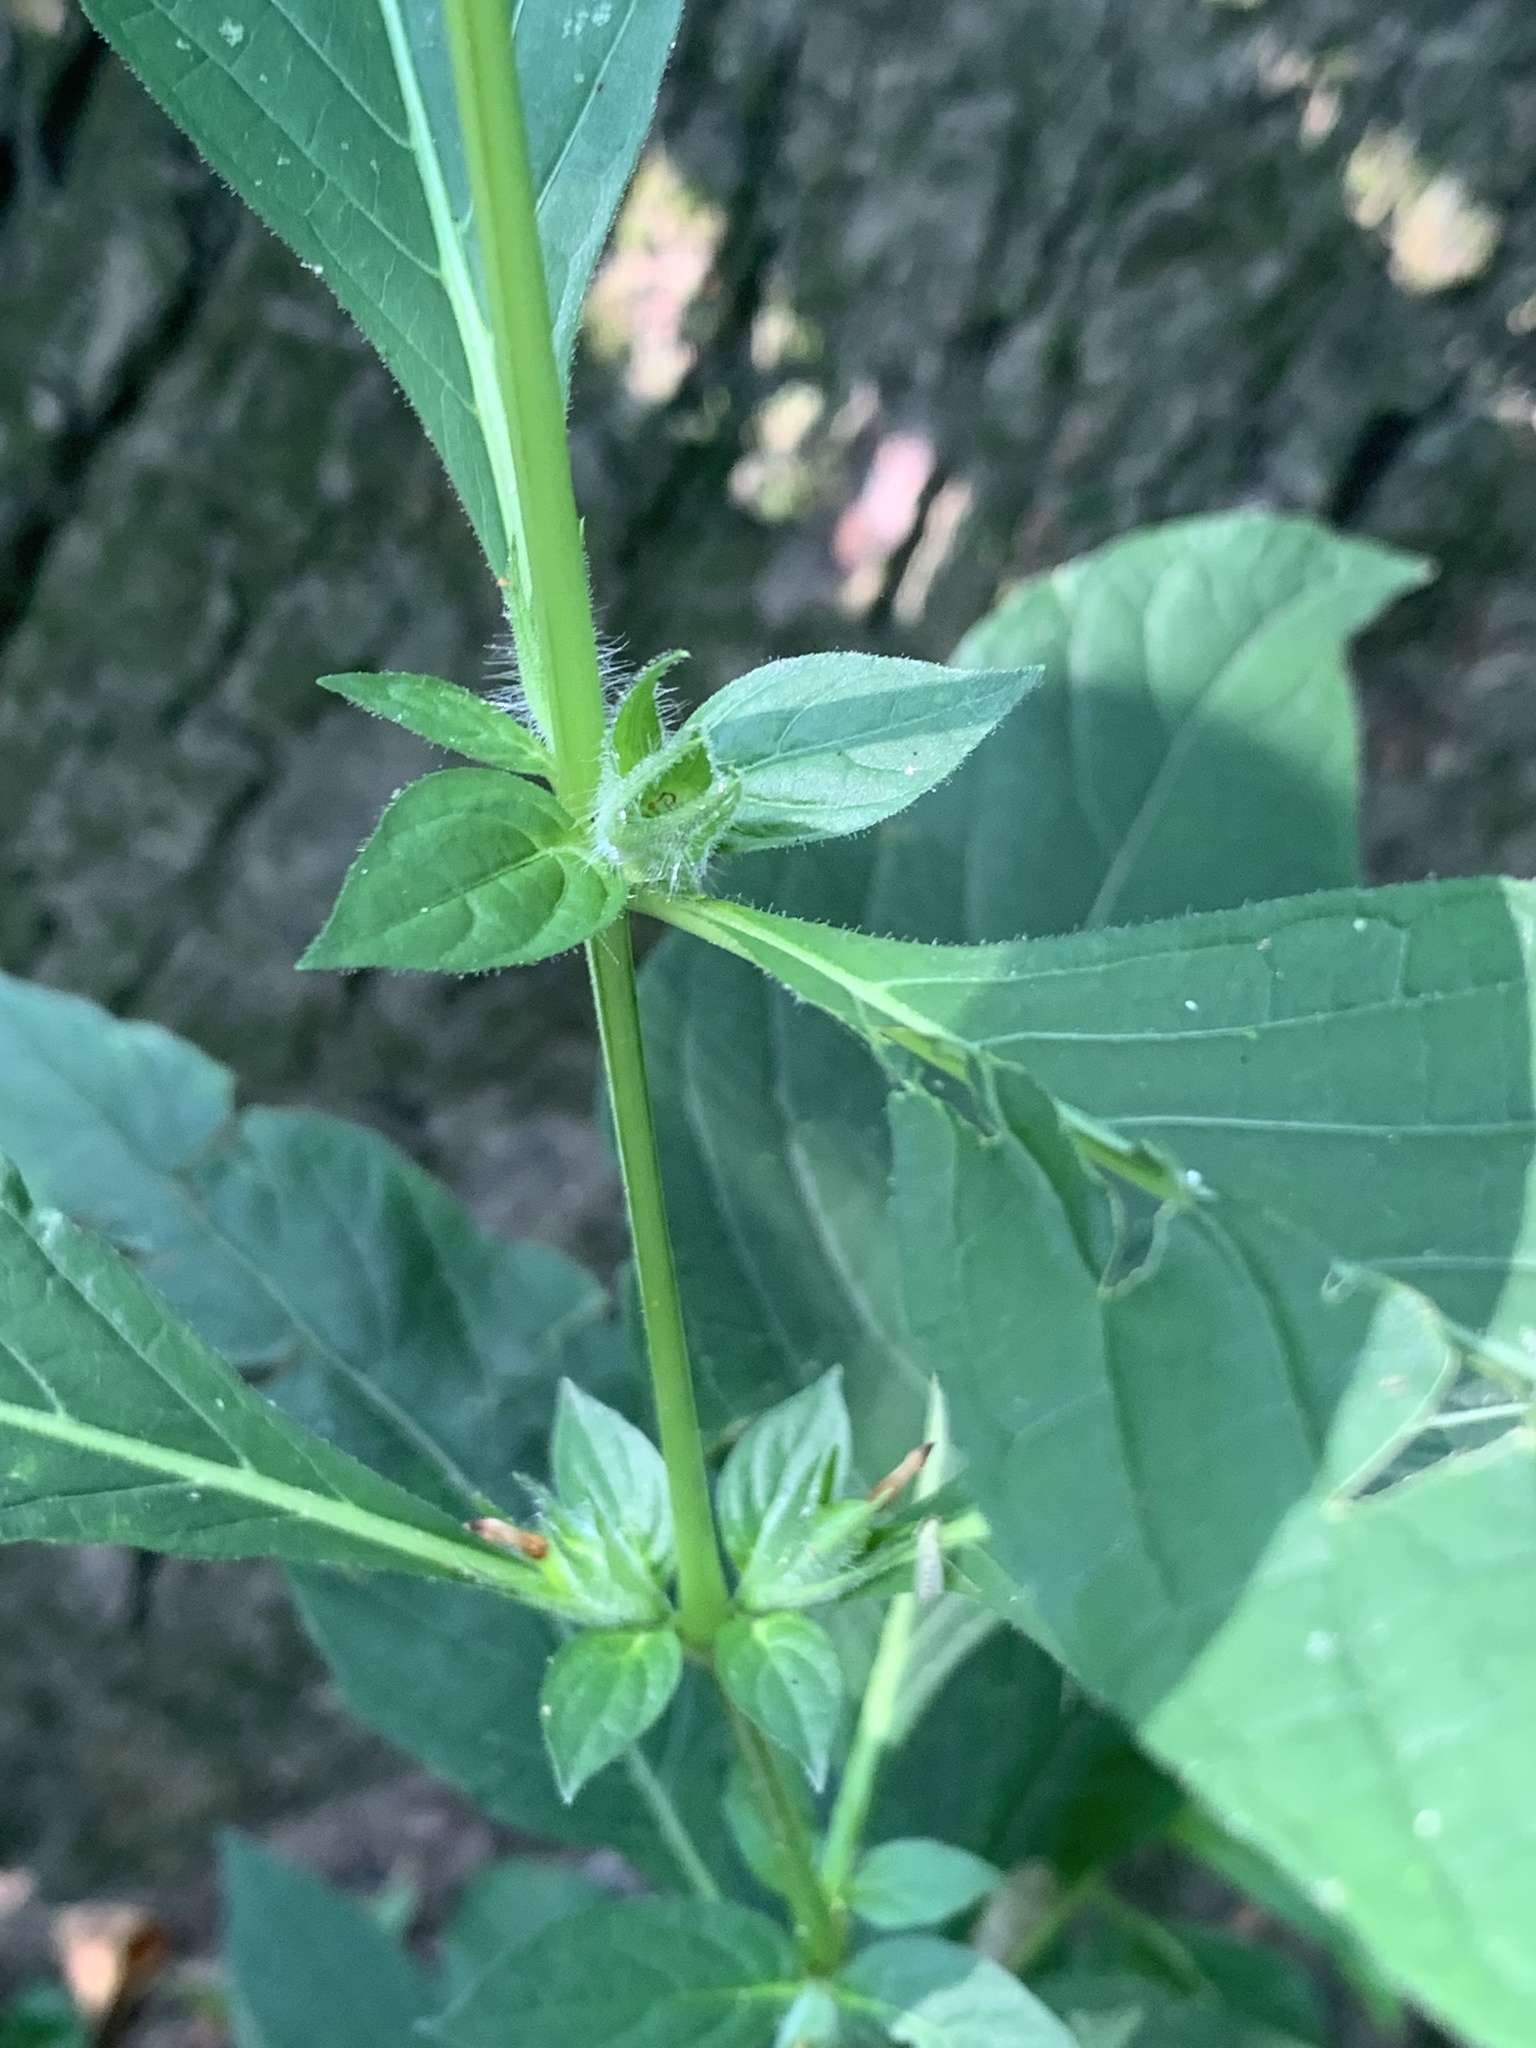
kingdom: Plantae
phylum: Tracheophyta
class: Magnoliopsida
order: Lamiales
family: Acanthaceae
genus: Ruellia
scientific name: Ruellia strepens
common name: Limestone wild petunia
